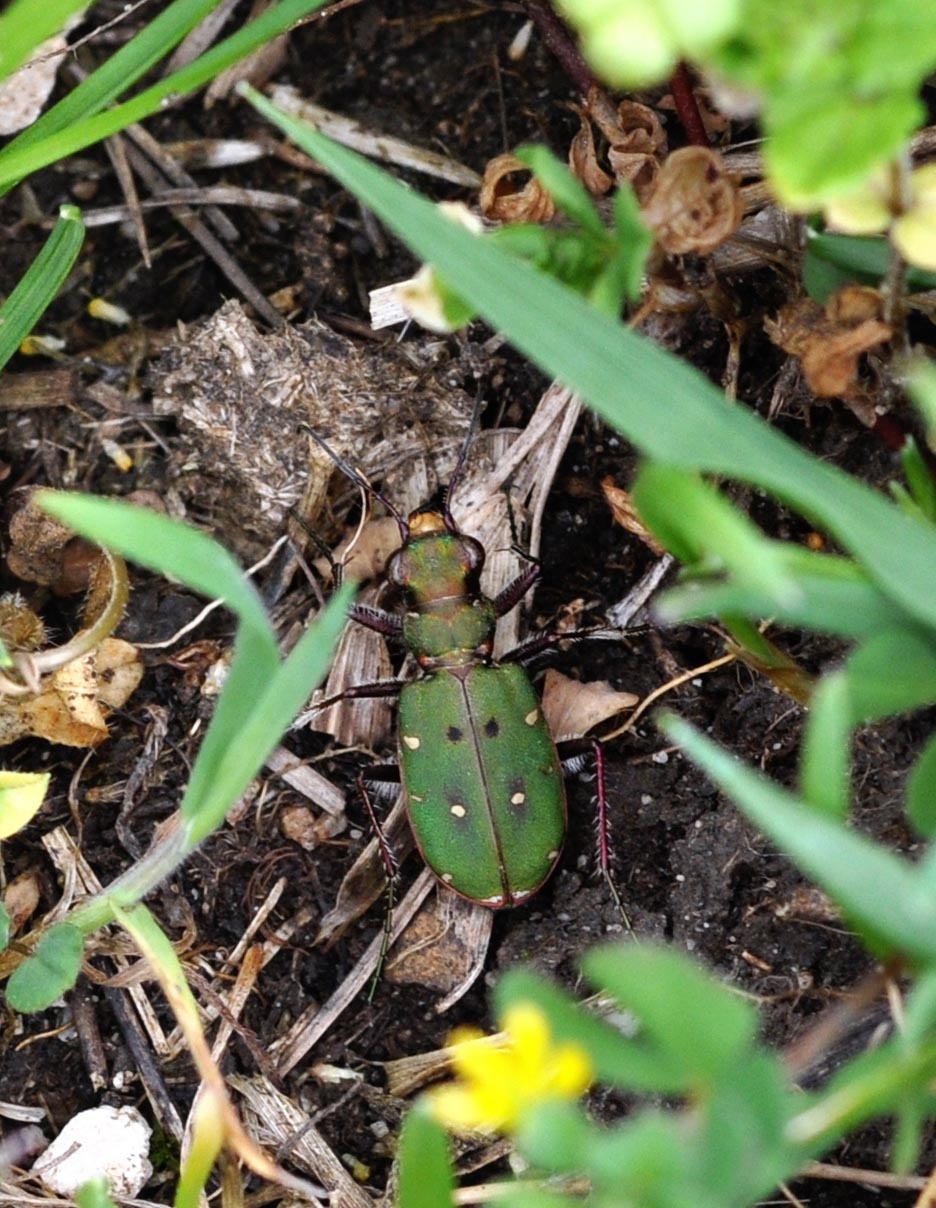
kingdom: Animalia
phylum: Arthropoda
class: Insecta
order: Coleoptera
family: Carabidae
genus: Cicindela
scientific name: Cicindela campestris
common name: Common tiger beetle
